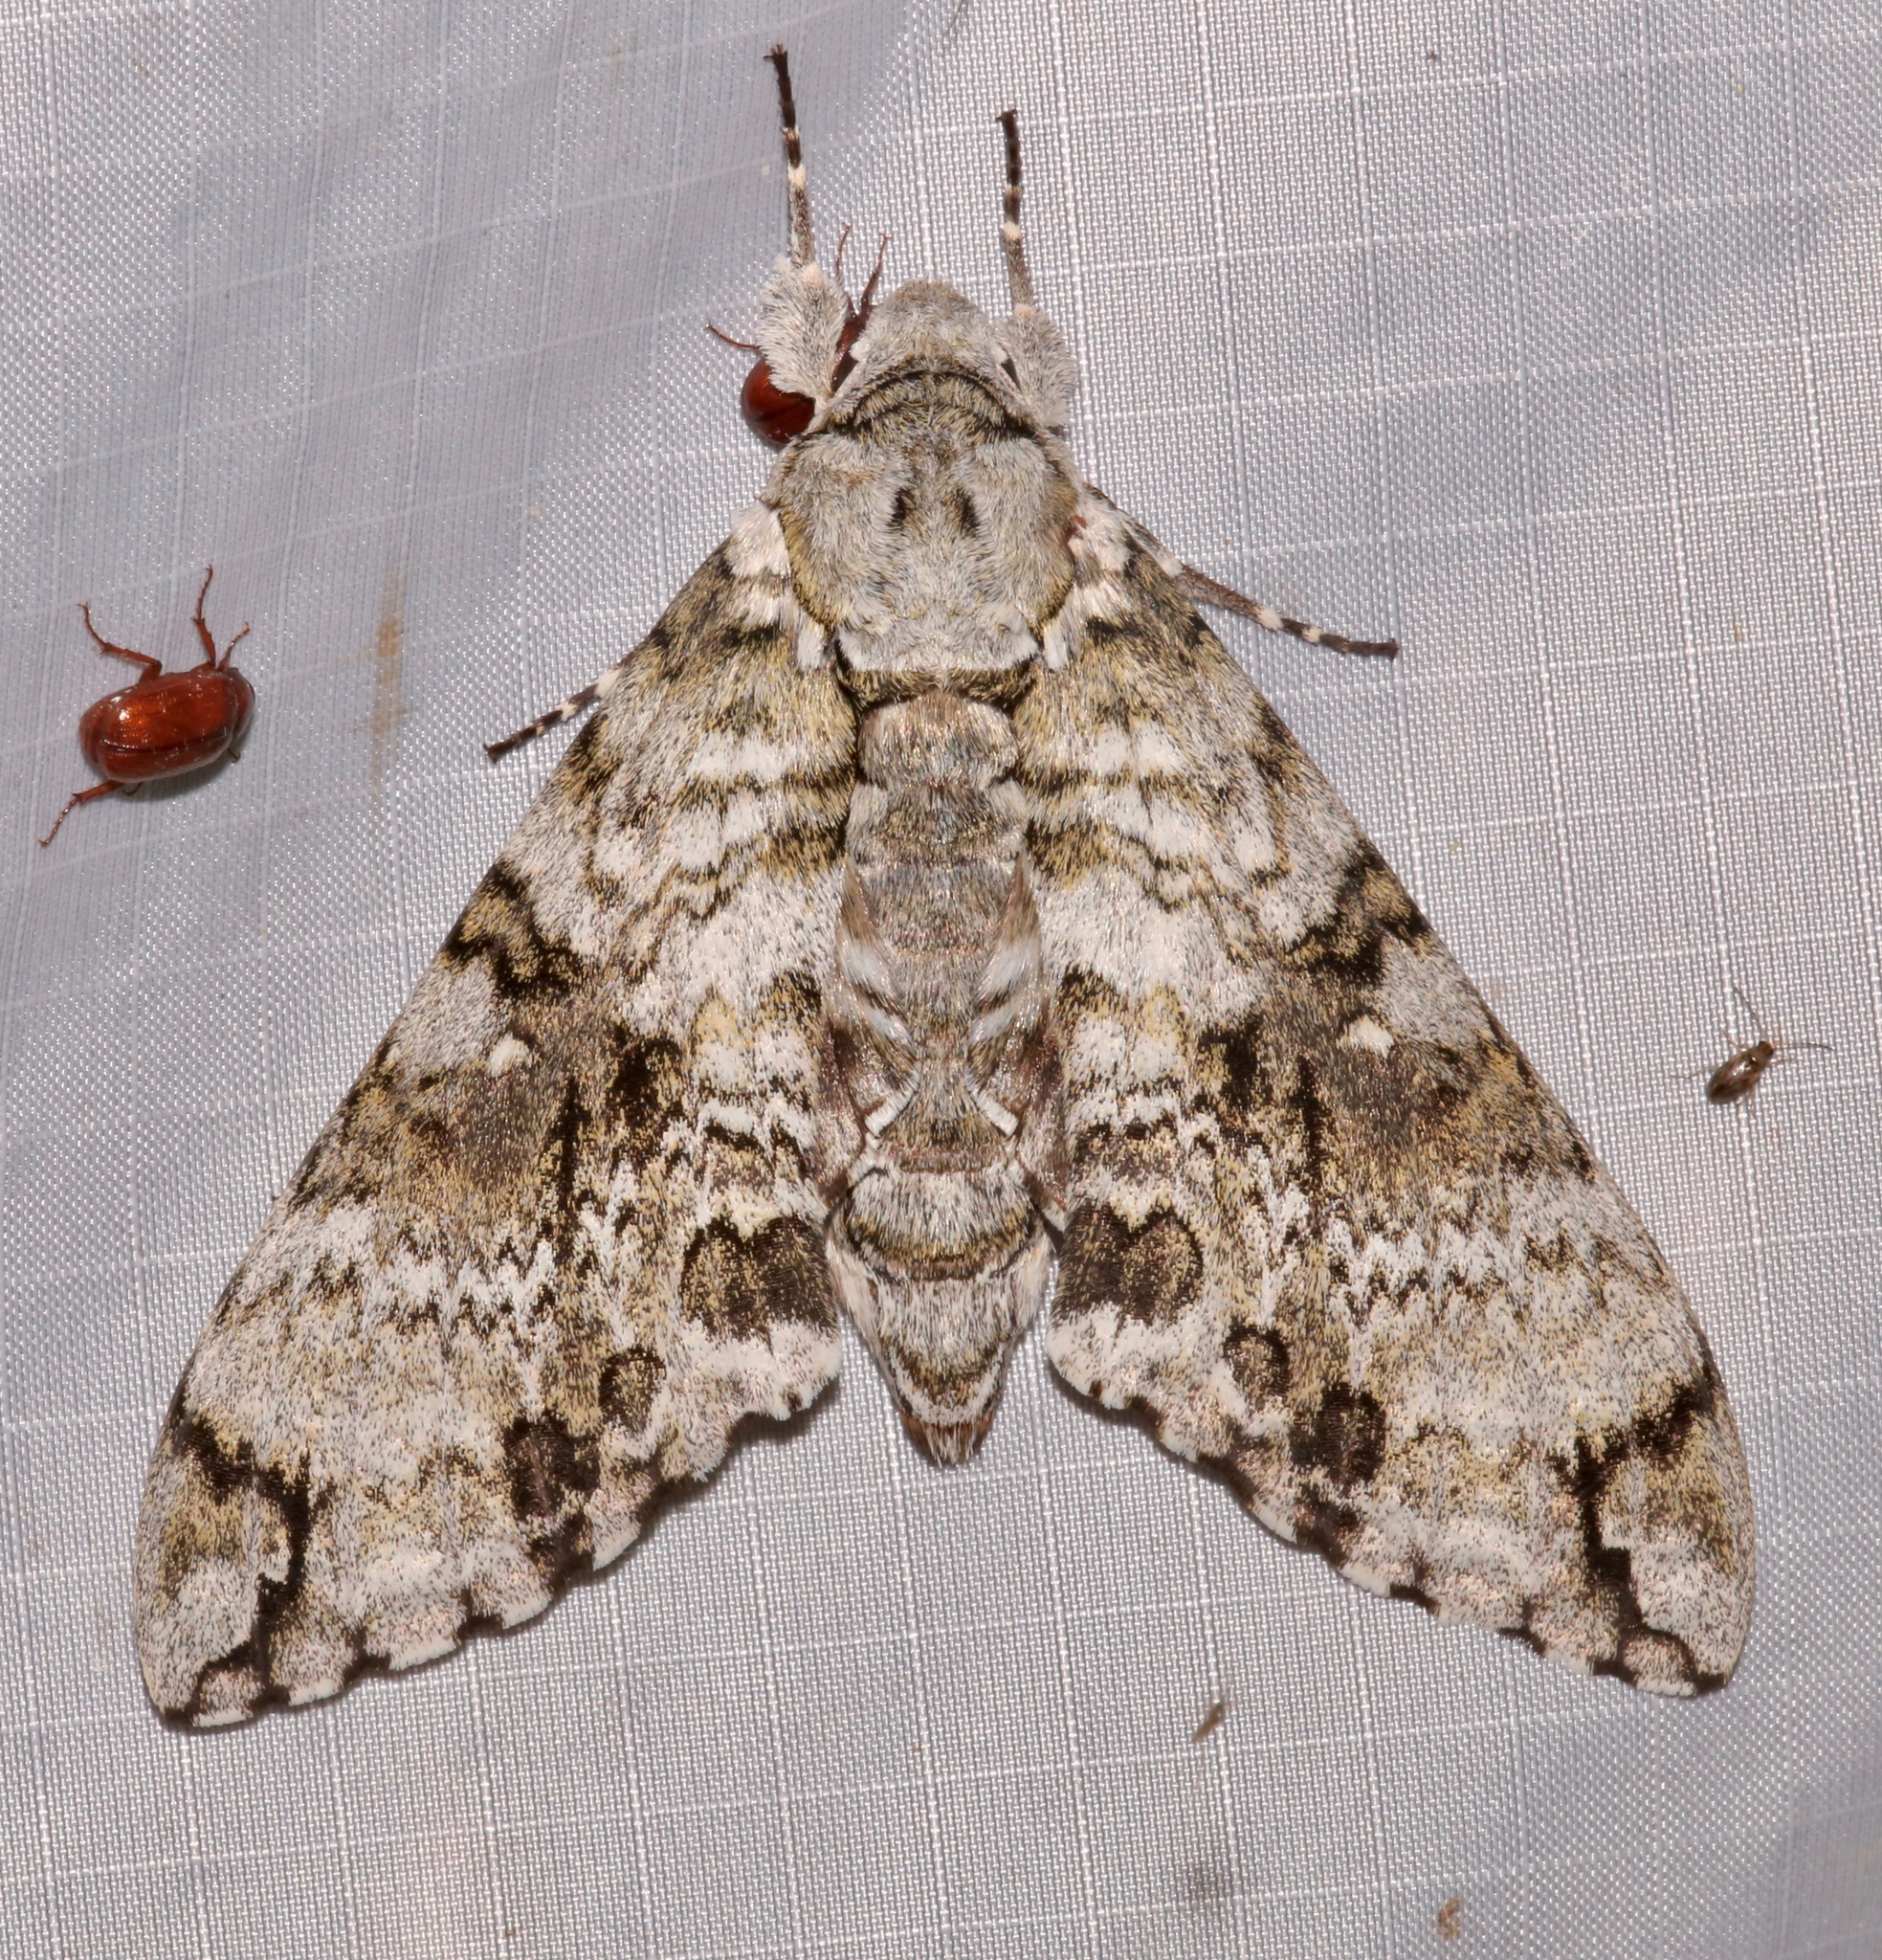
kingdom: Animalia
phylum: Arthropoda
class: Insecta
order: Lepidoptera
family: Sphingidae
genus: Manduca
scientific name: Manduca florestan
